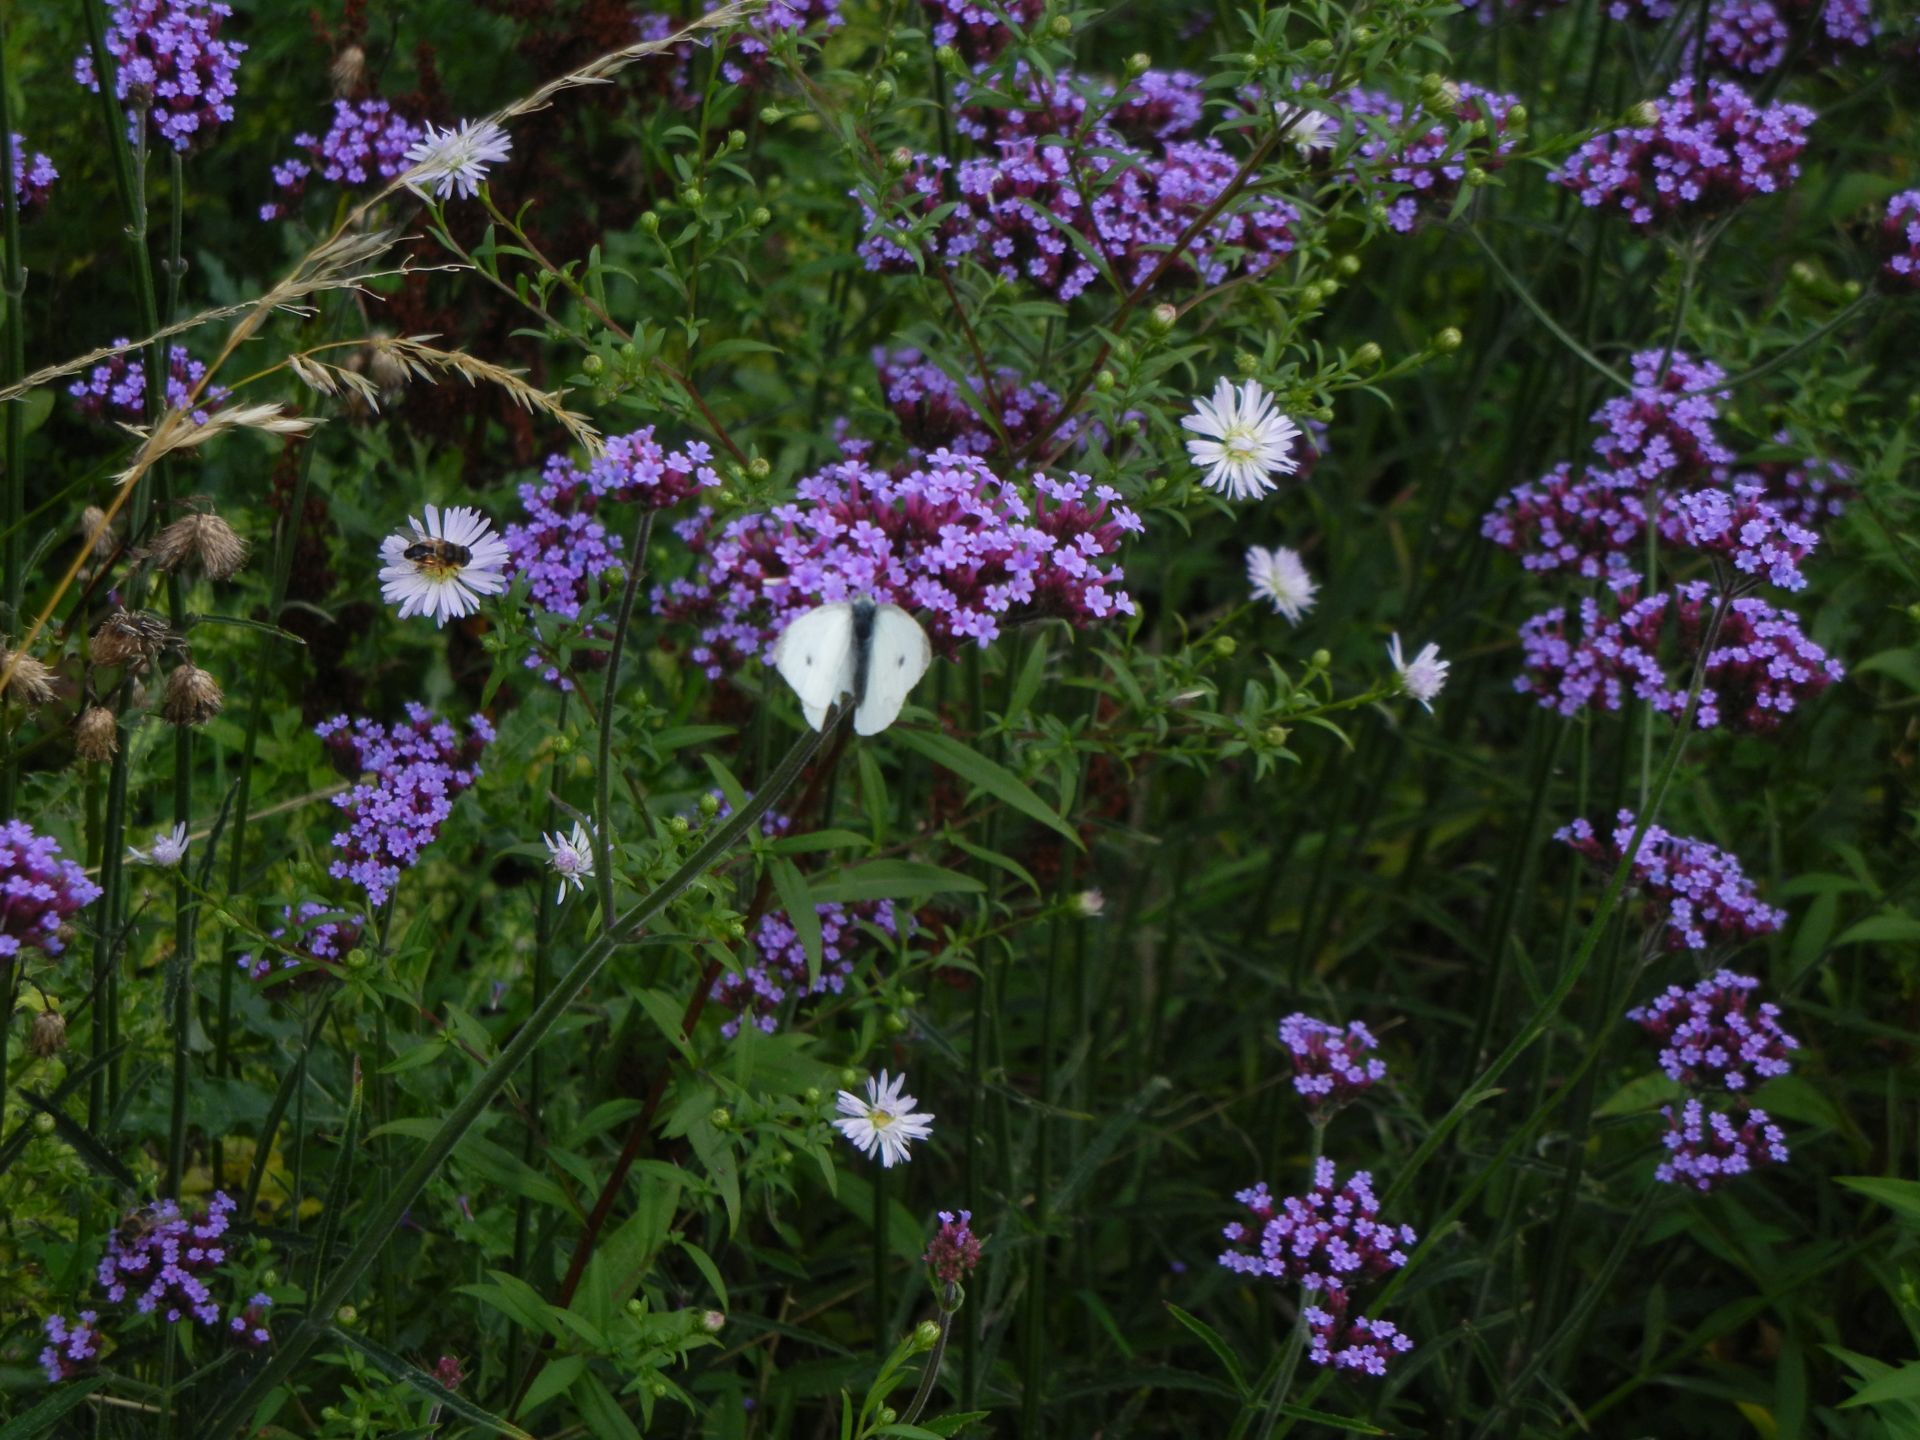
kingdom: Plantae
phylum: Tracheophyta
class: Magnoliopsida
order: Lamiales
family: Verbenaceae
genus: Verbena
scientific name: Verbena bonariensis
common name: Purpletop vervain
